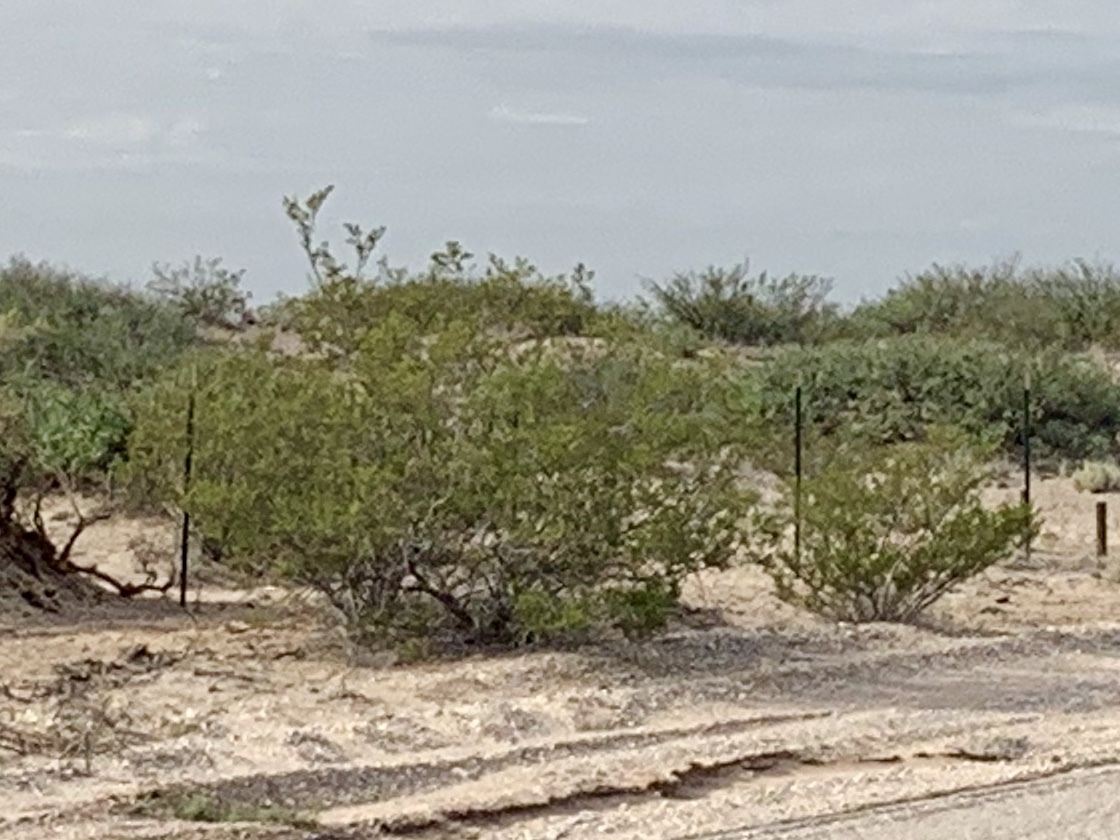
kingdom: Plantae
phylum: Tracheophyta
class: Magnoliopsida
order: Zygophyllales
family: Zygophyllaceae
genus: Larrea
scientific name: Larrea tridentata
